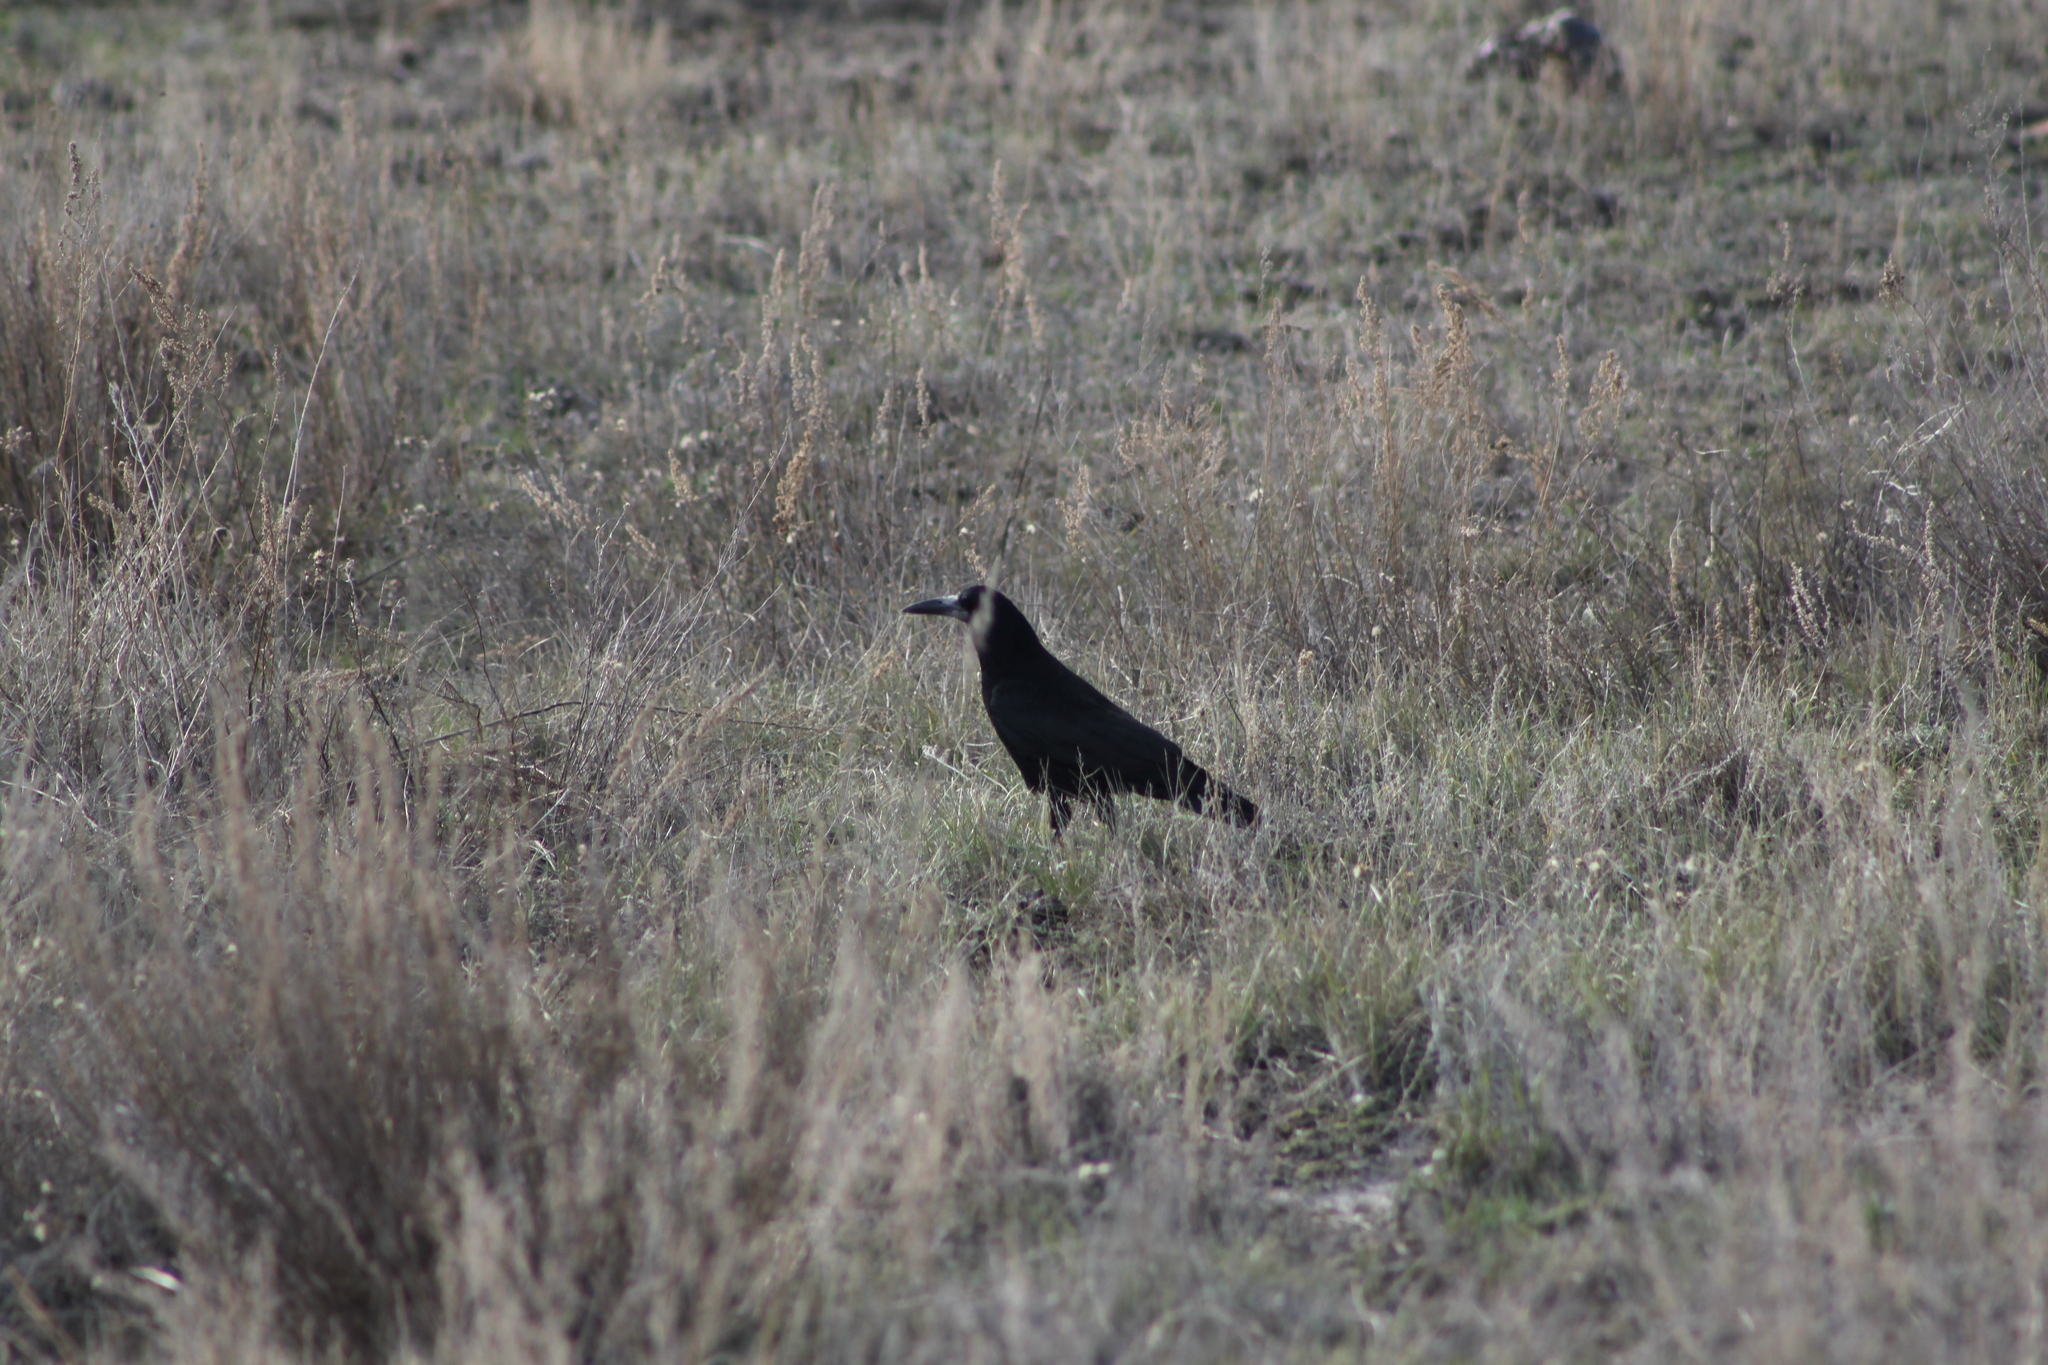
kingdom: Animalia
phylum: Chordata
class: Aves
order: Passeriformes
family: Corvidae
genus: Corvus
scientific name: Corvus frugilegus
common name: Rook
